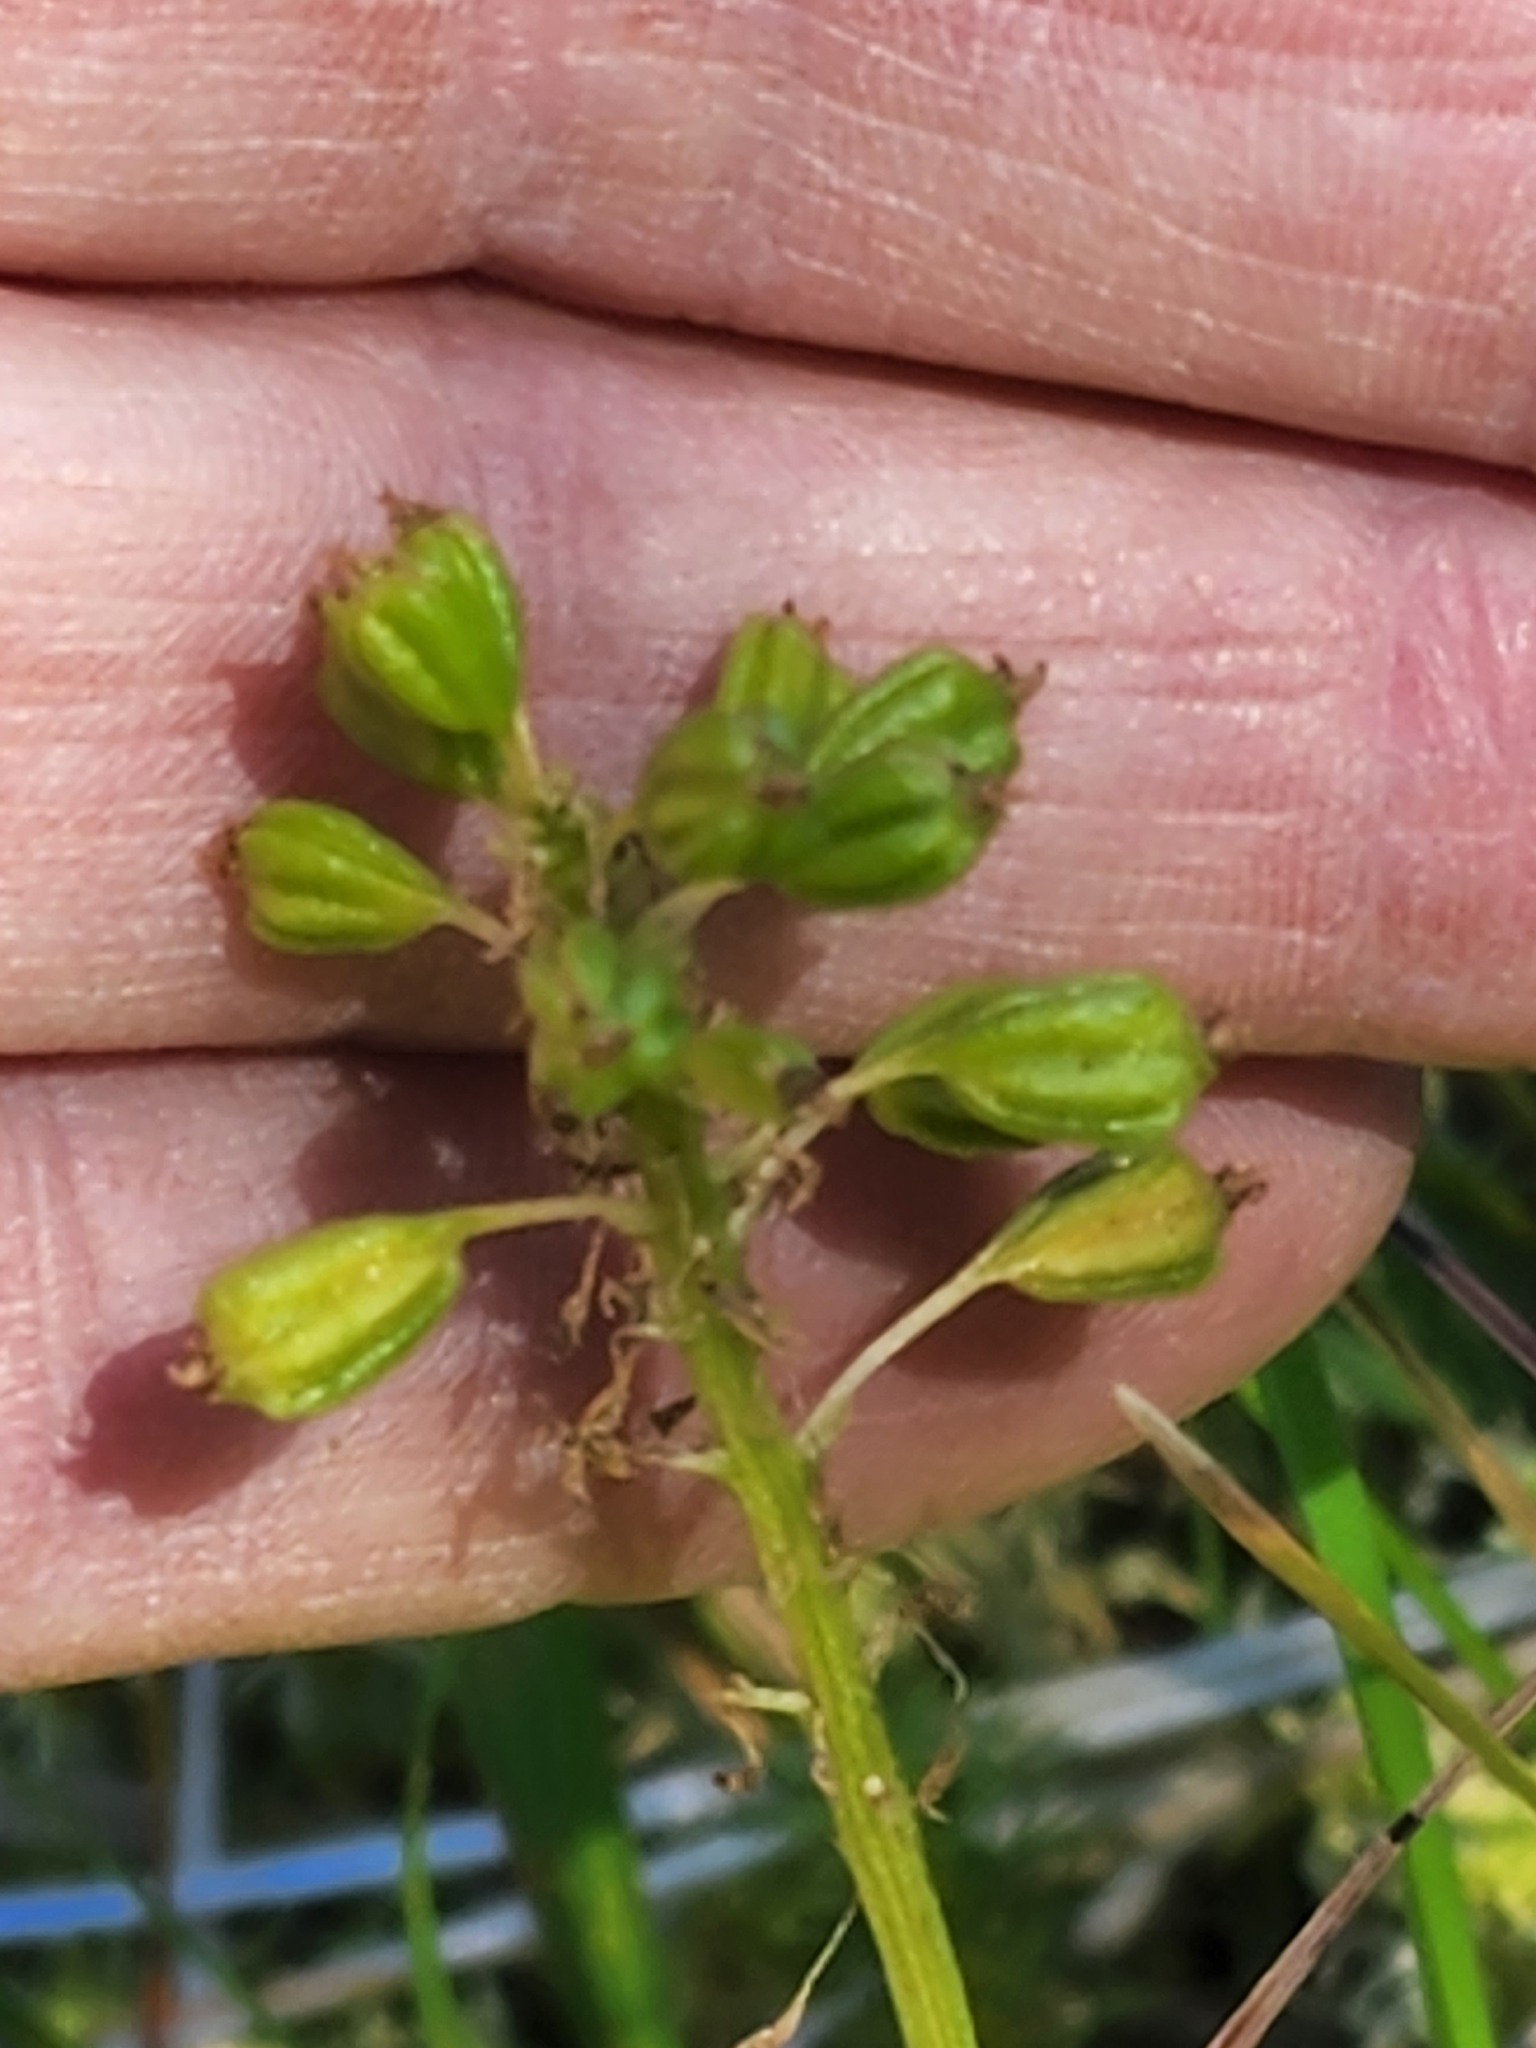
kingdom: Plantae
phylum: Tracheophyta
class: Liliopsida
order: Asparagales
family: Orchidaceae
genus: Malaxis
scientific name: Malaxis unifolia
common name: Green adder's-mouth
